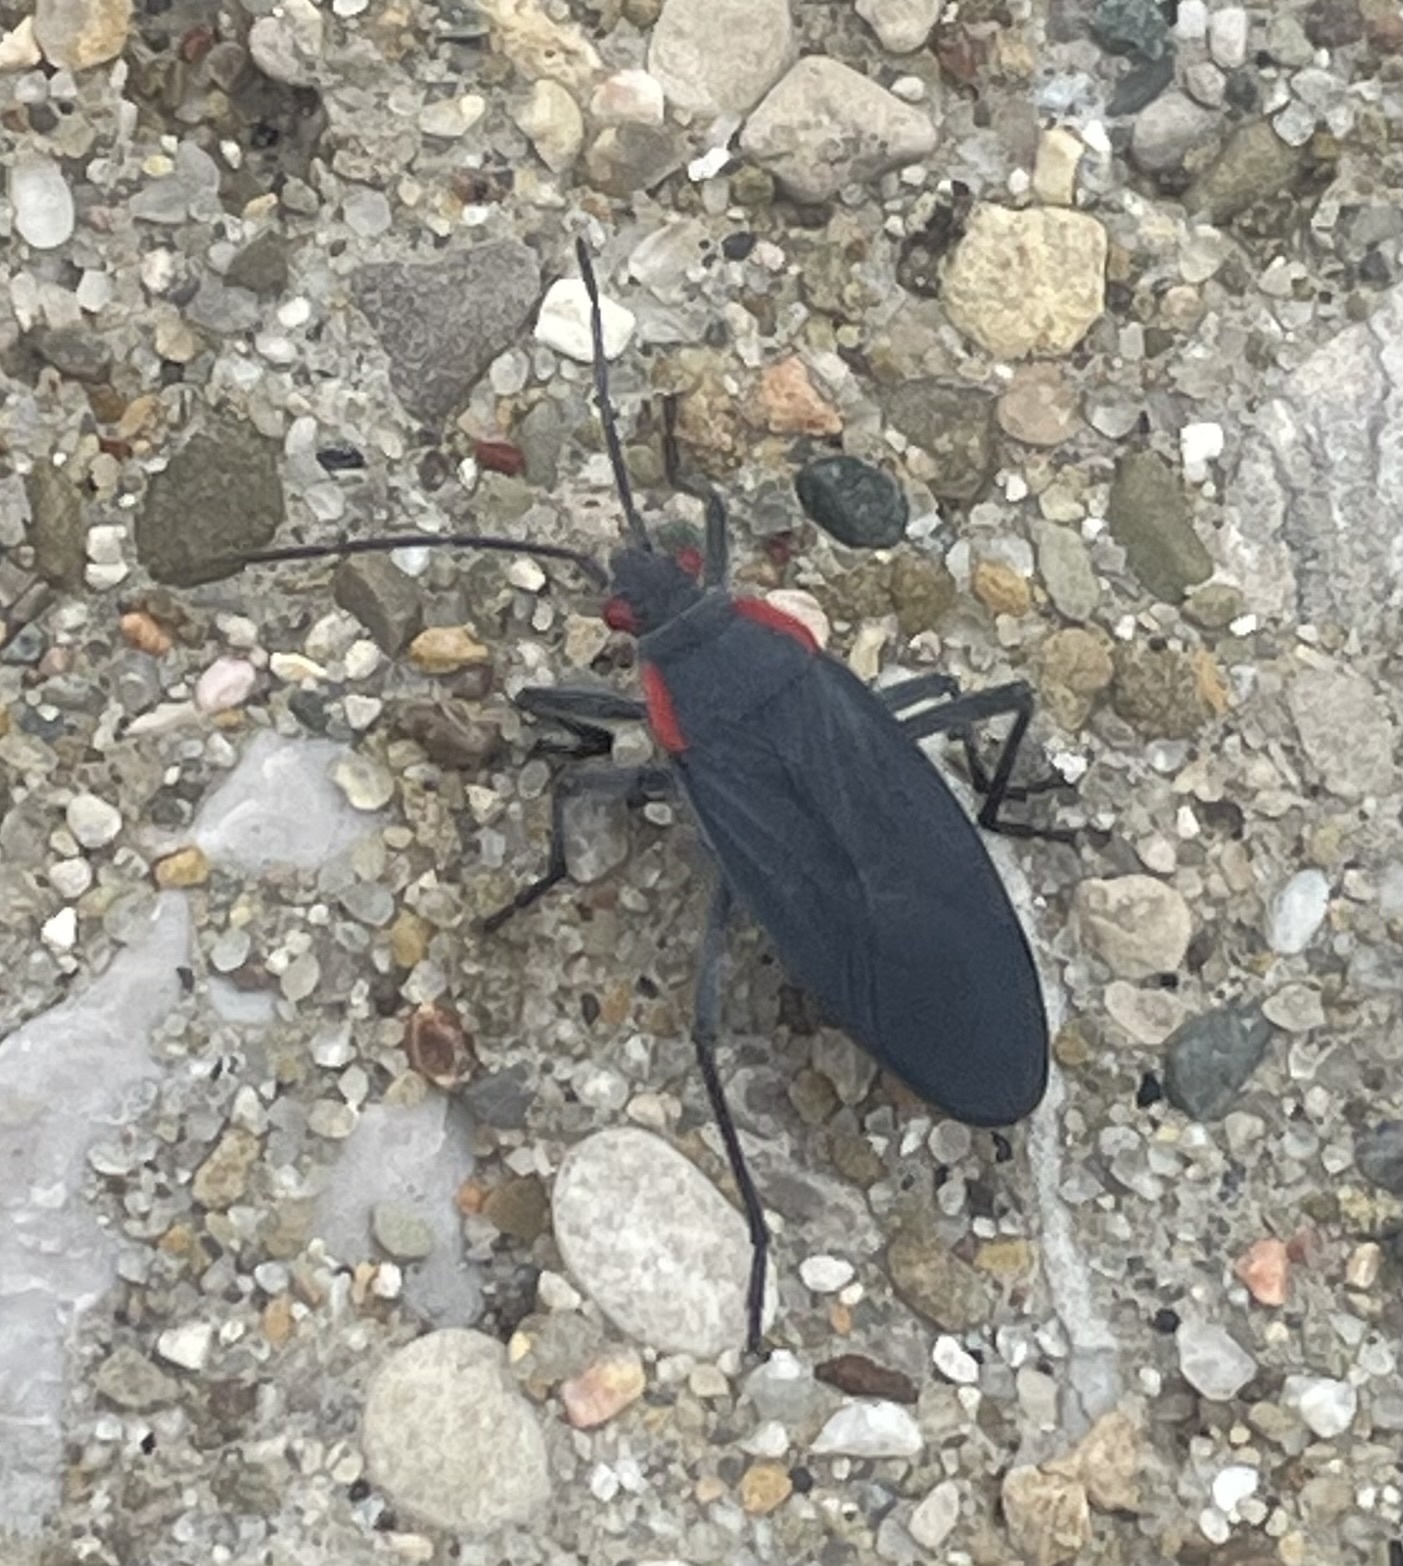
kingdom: Animalia
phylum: Arthropoda
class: Insecta
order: Hemiptera
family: Rhopalidae
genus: Jadera
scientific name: Jadera haematoloma
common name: Red-shouldered bug
